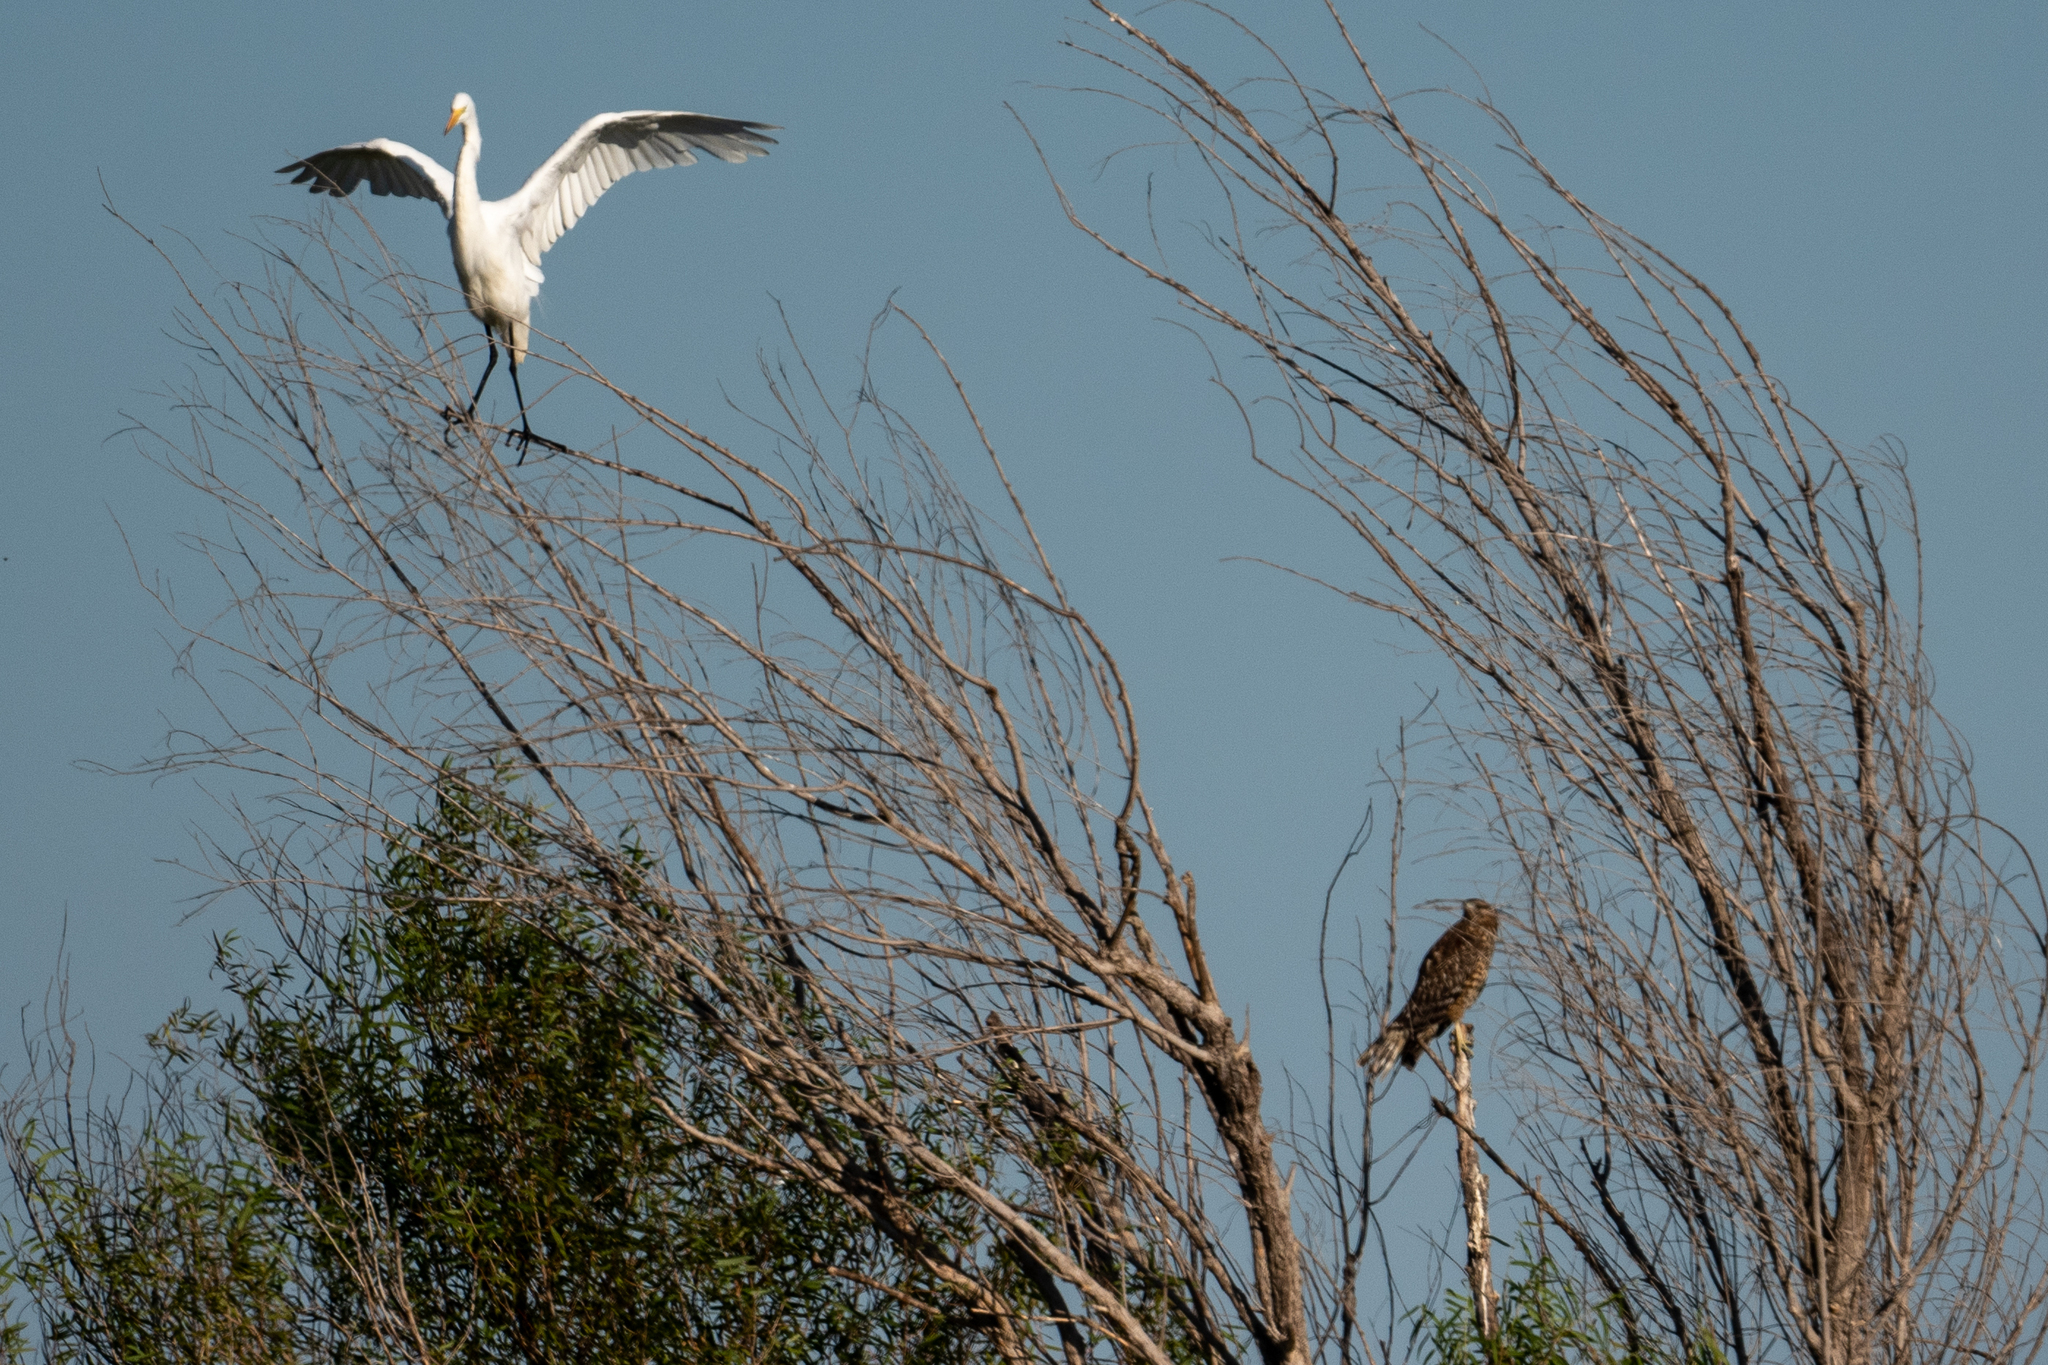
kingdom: Animalia
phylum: Chordata
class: Aves
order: Pelecaniformes
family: Ardeidae
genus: Ardea
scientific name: Ardea alba
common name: Great egret
